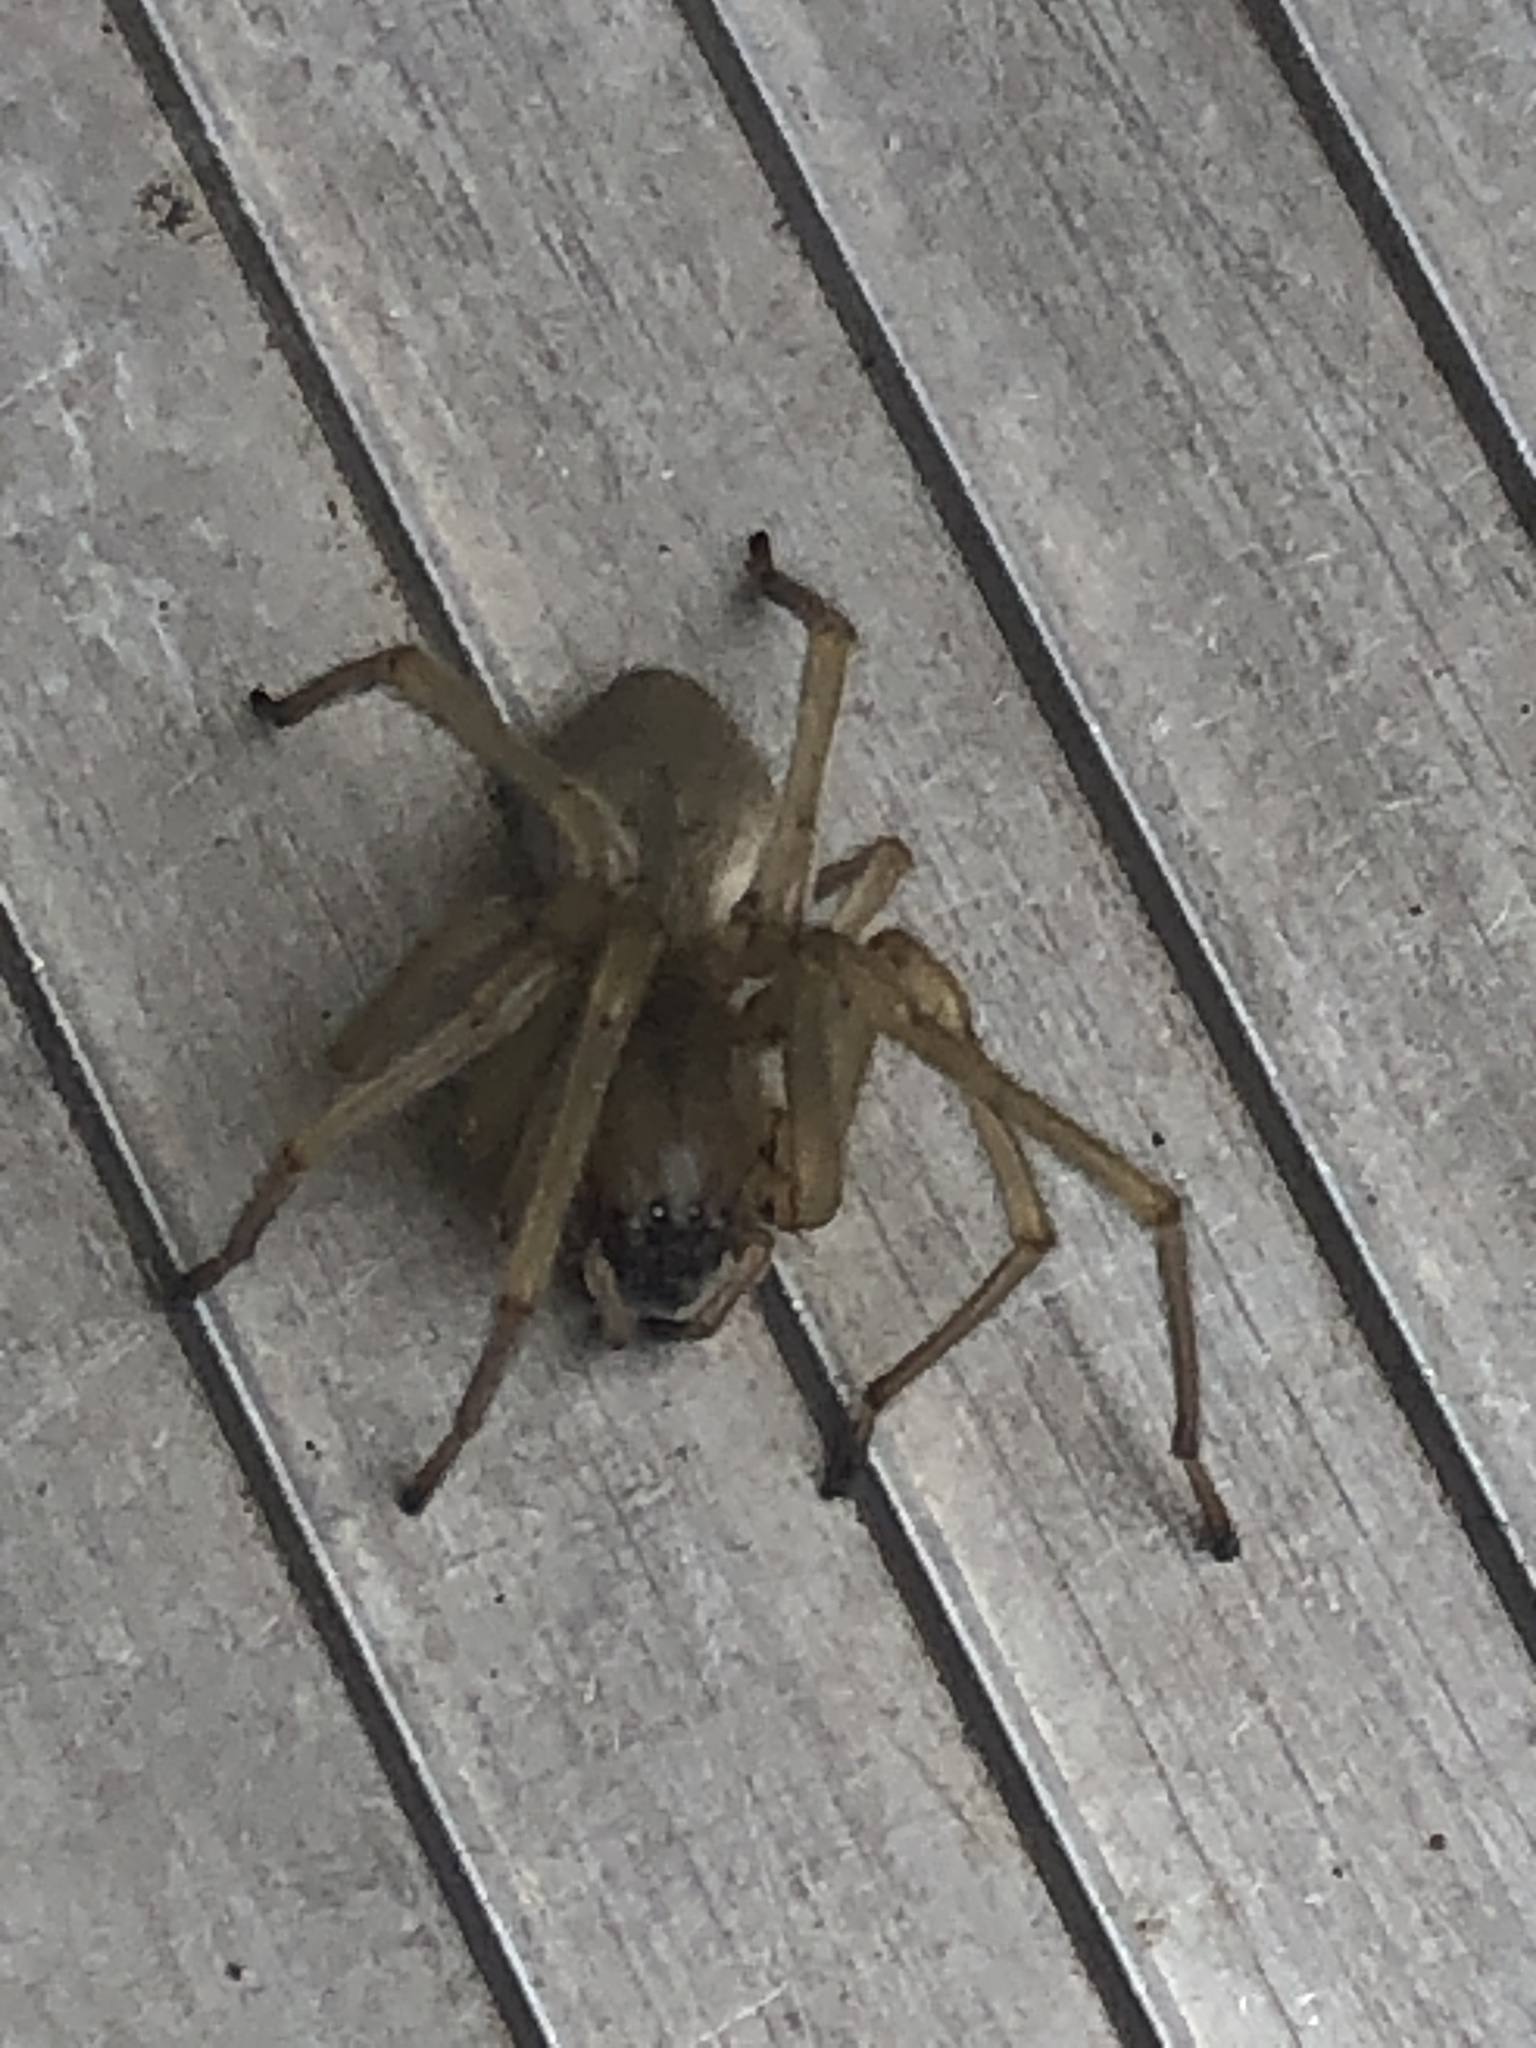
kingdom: Animalia
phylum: Arthropoda
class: Arachnida
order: Araneae
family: Cheiracanthiidae
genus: Cheiracanthium
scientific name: Cheiracanthium mildei
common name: Northern yellow sac spider
